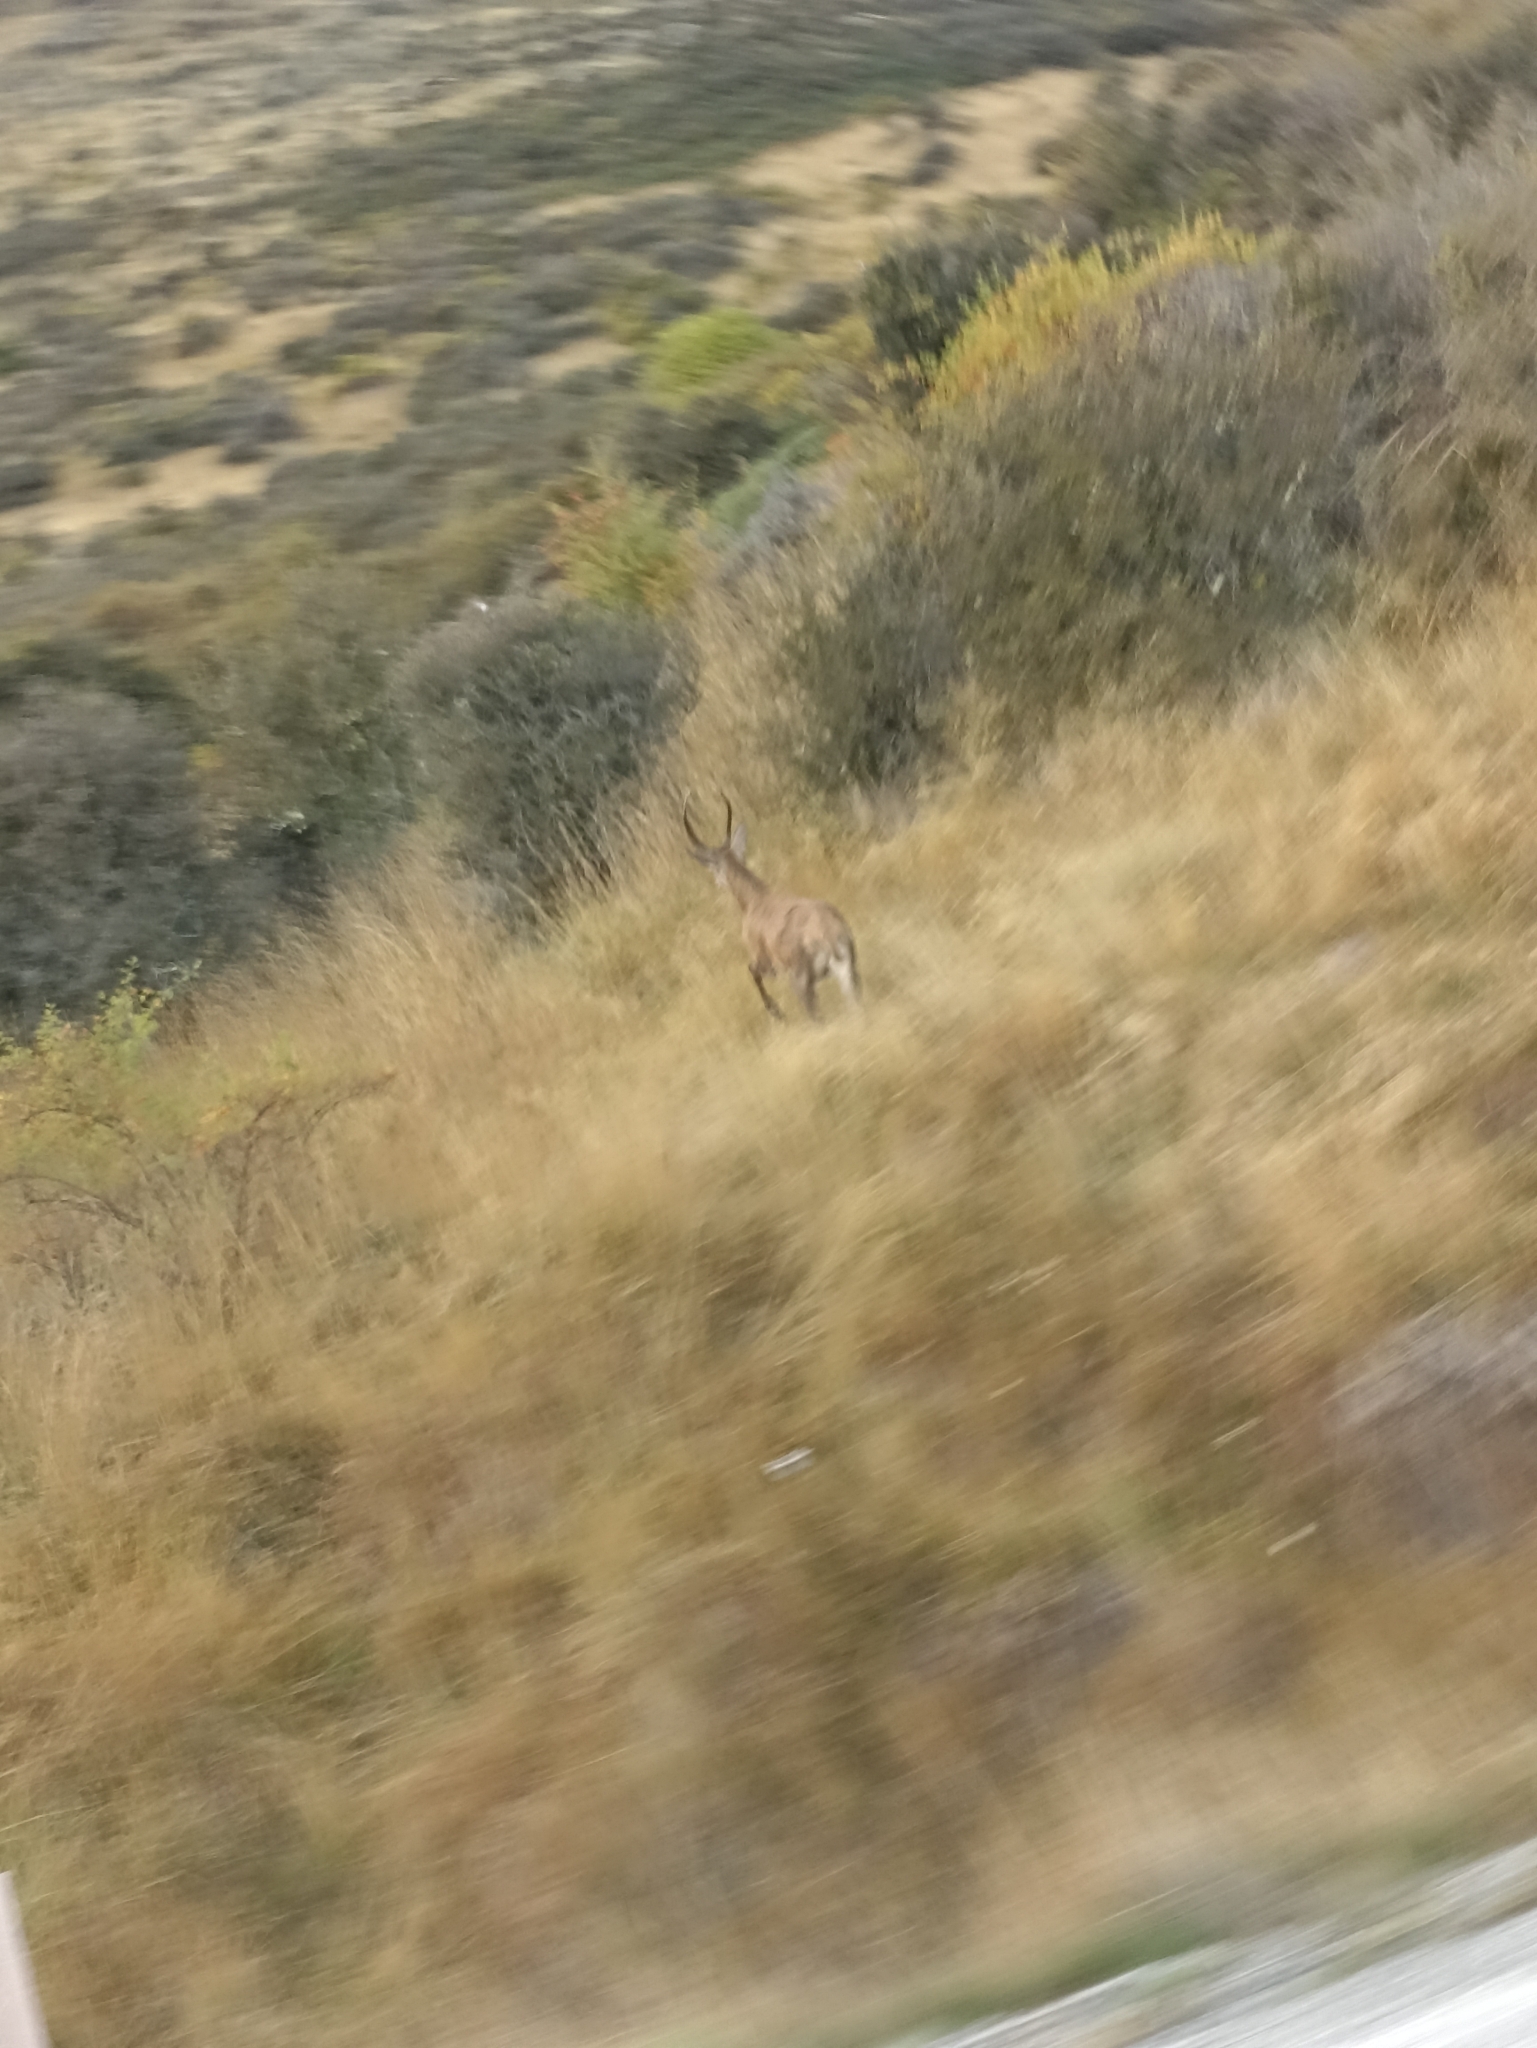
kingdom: Animalia
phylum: Chordata
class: Mammalia
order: Artiodactyla
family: Cervidae
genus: Cervus
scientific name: Cervus elaphus
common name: Red deer
